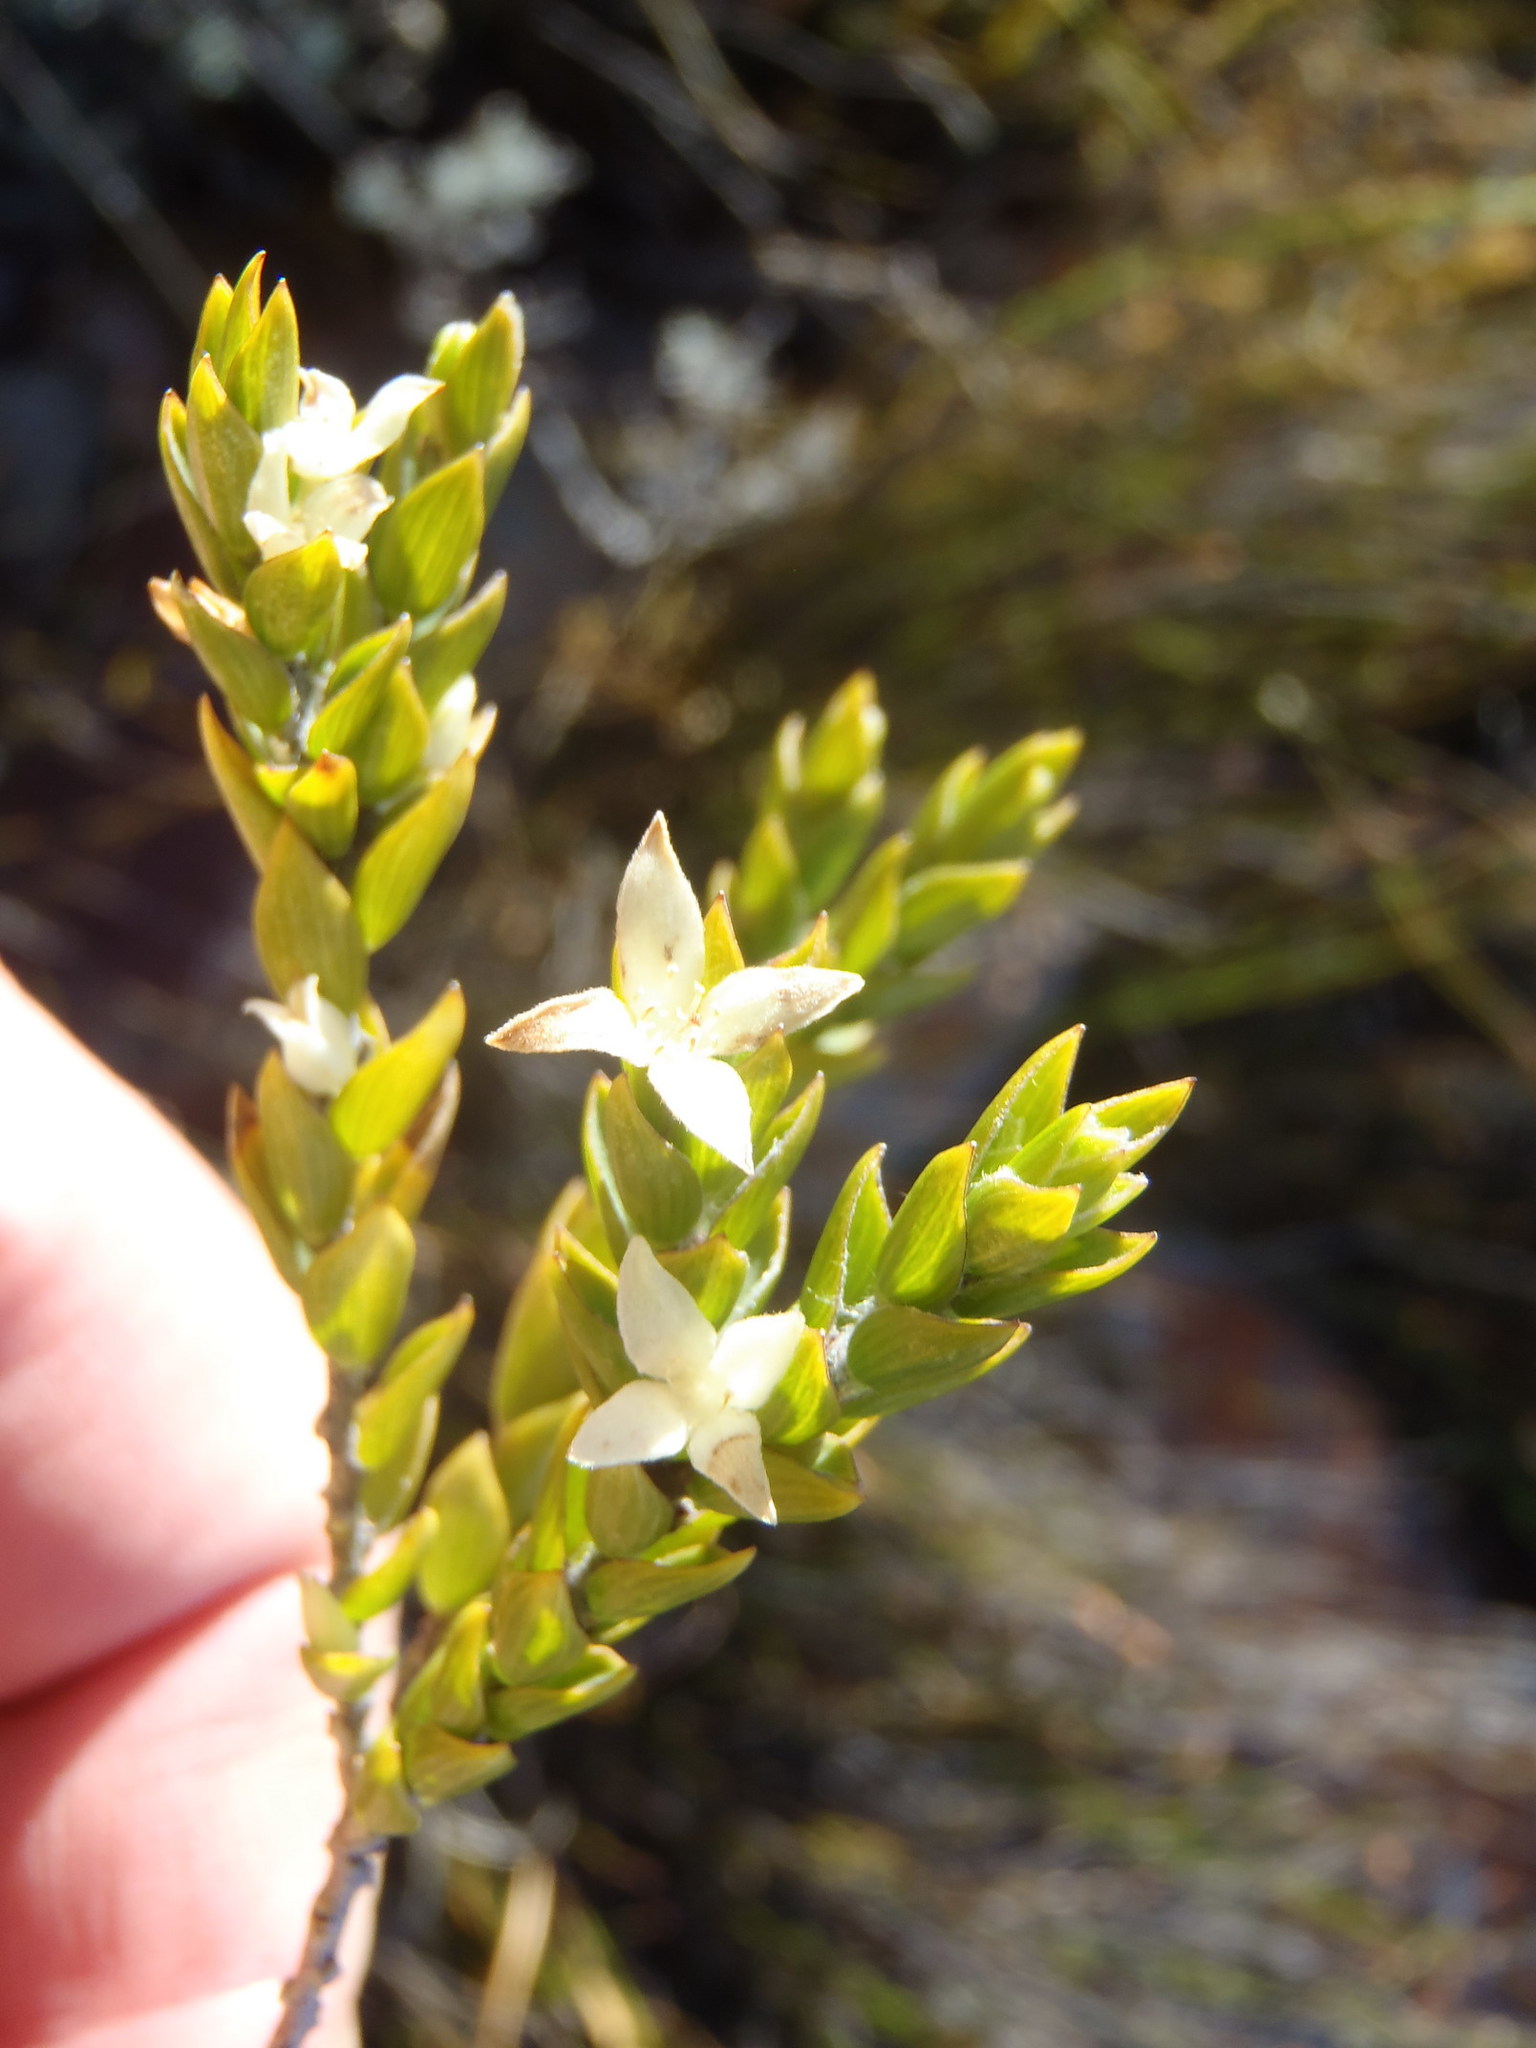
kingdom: Plantae
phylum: Tracheophyta
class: Magnoliopsida
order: Malvales
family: Thymelaeaceae
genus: Lachnaea
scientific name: Lachnaea ruscifolia
